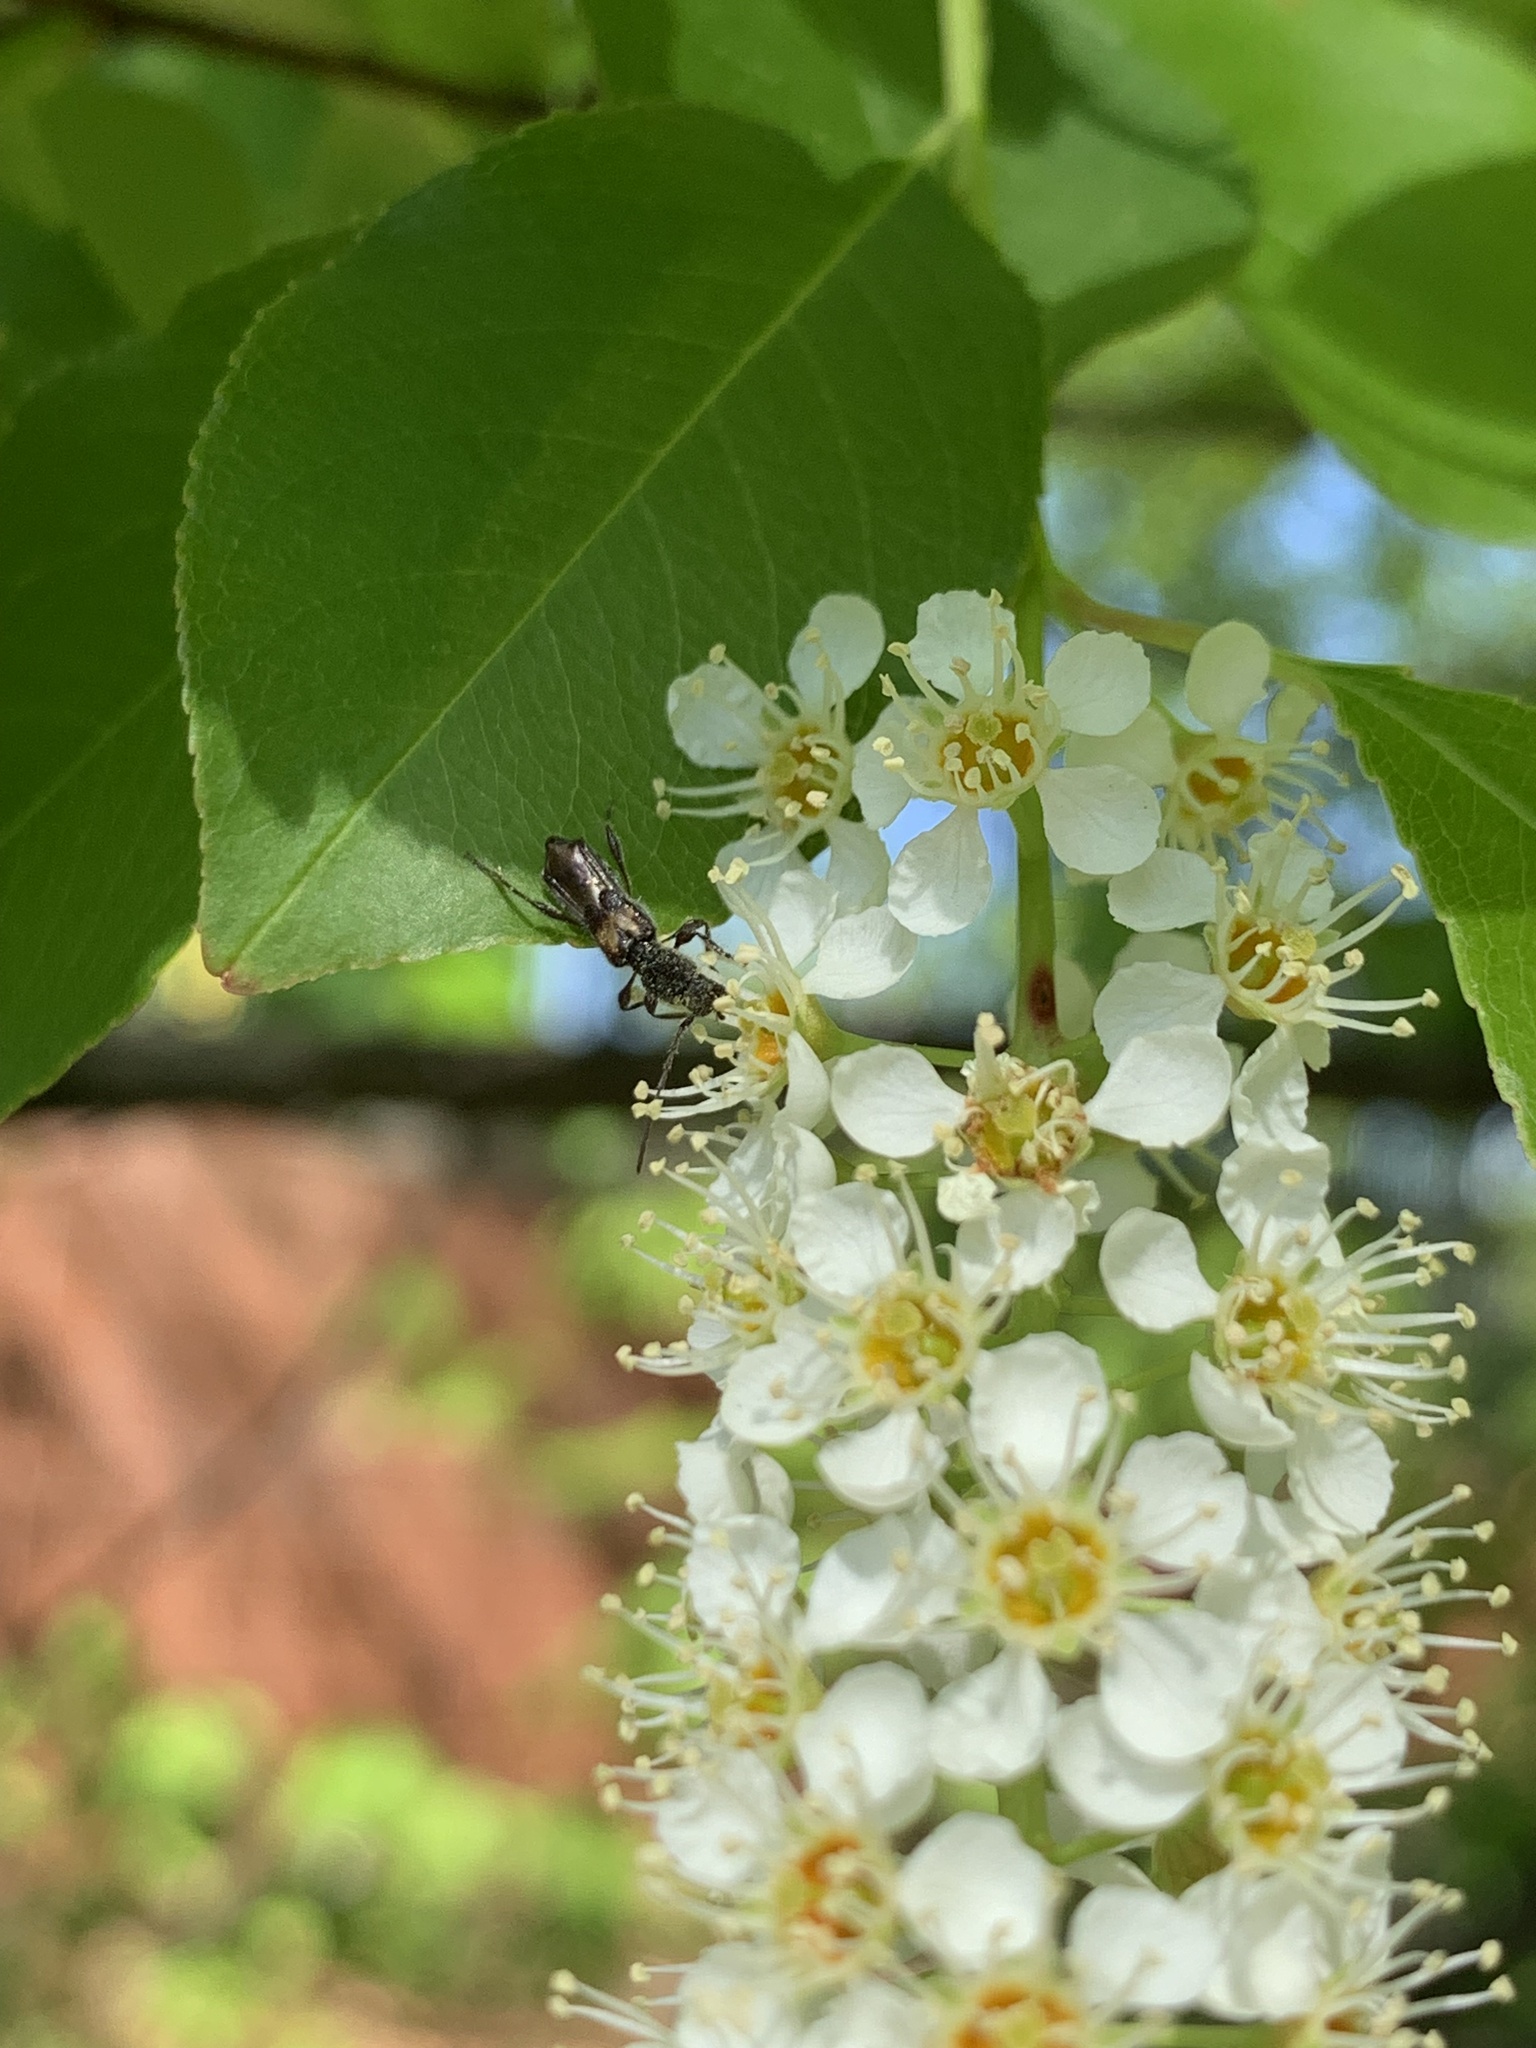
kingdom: Animalia
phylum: Arthropoda
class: Insecta
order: Coleoptera
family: Cerambycidae
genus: Molorchus
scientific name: Molorchus bimaculatus
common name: Bimaculate longhorn beetle
